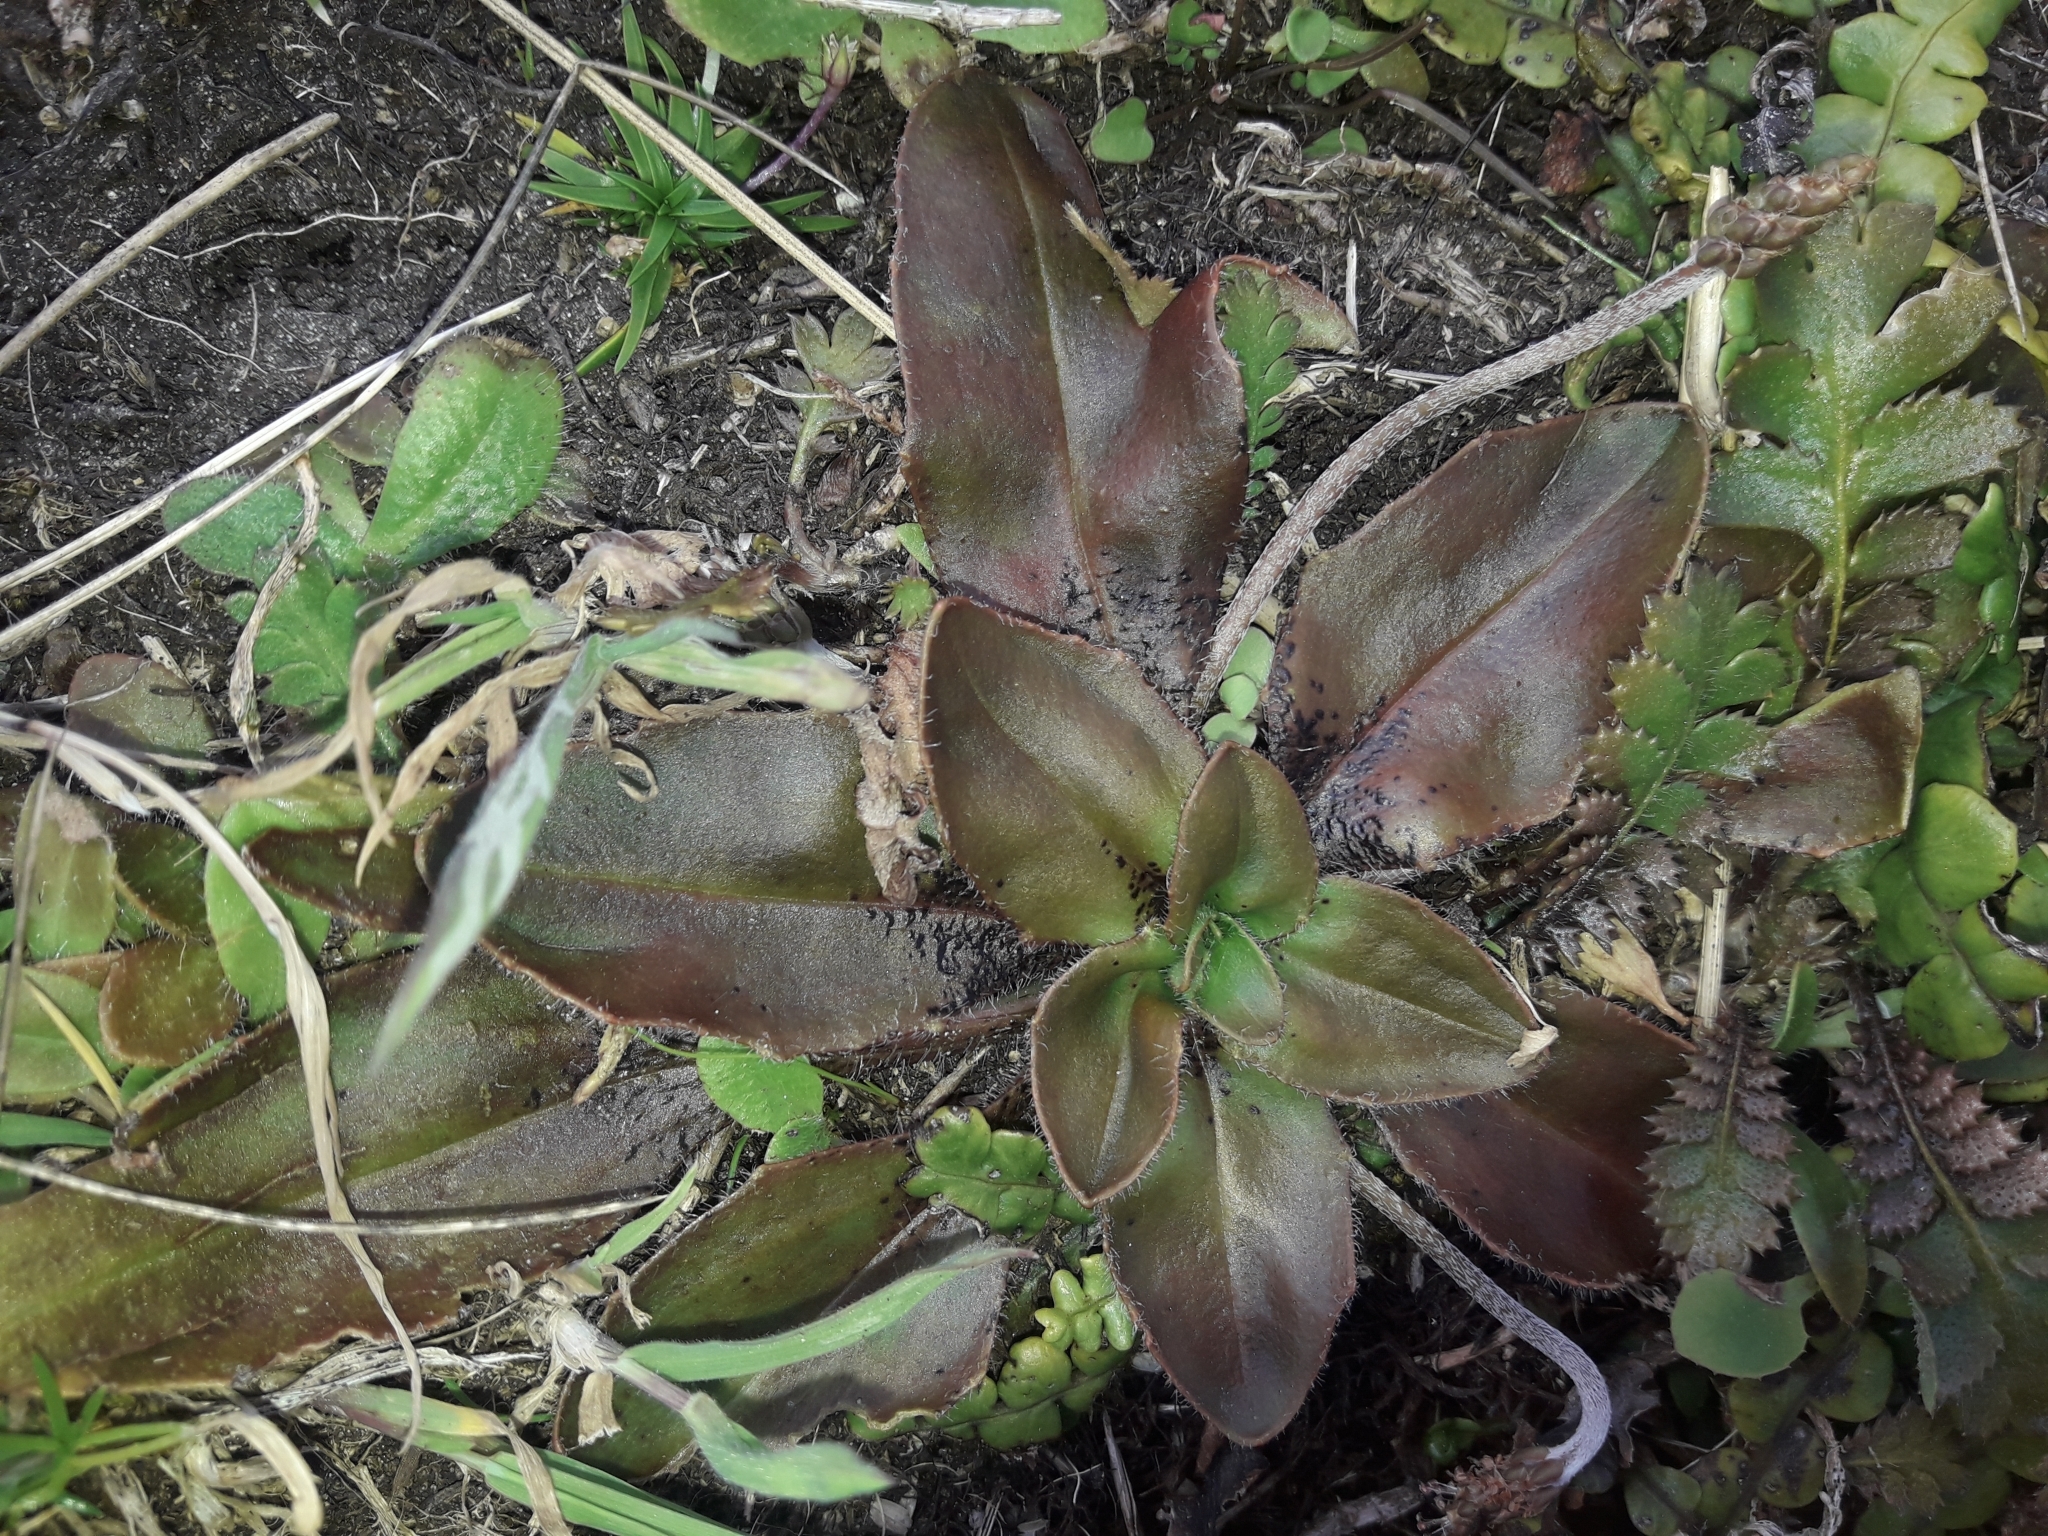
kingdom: Plantae
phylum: Tracheophyta
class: Magnoliopsida
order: Lamiales
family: Plantaginaceae
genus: Plantago
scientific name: Plantago raoulii
